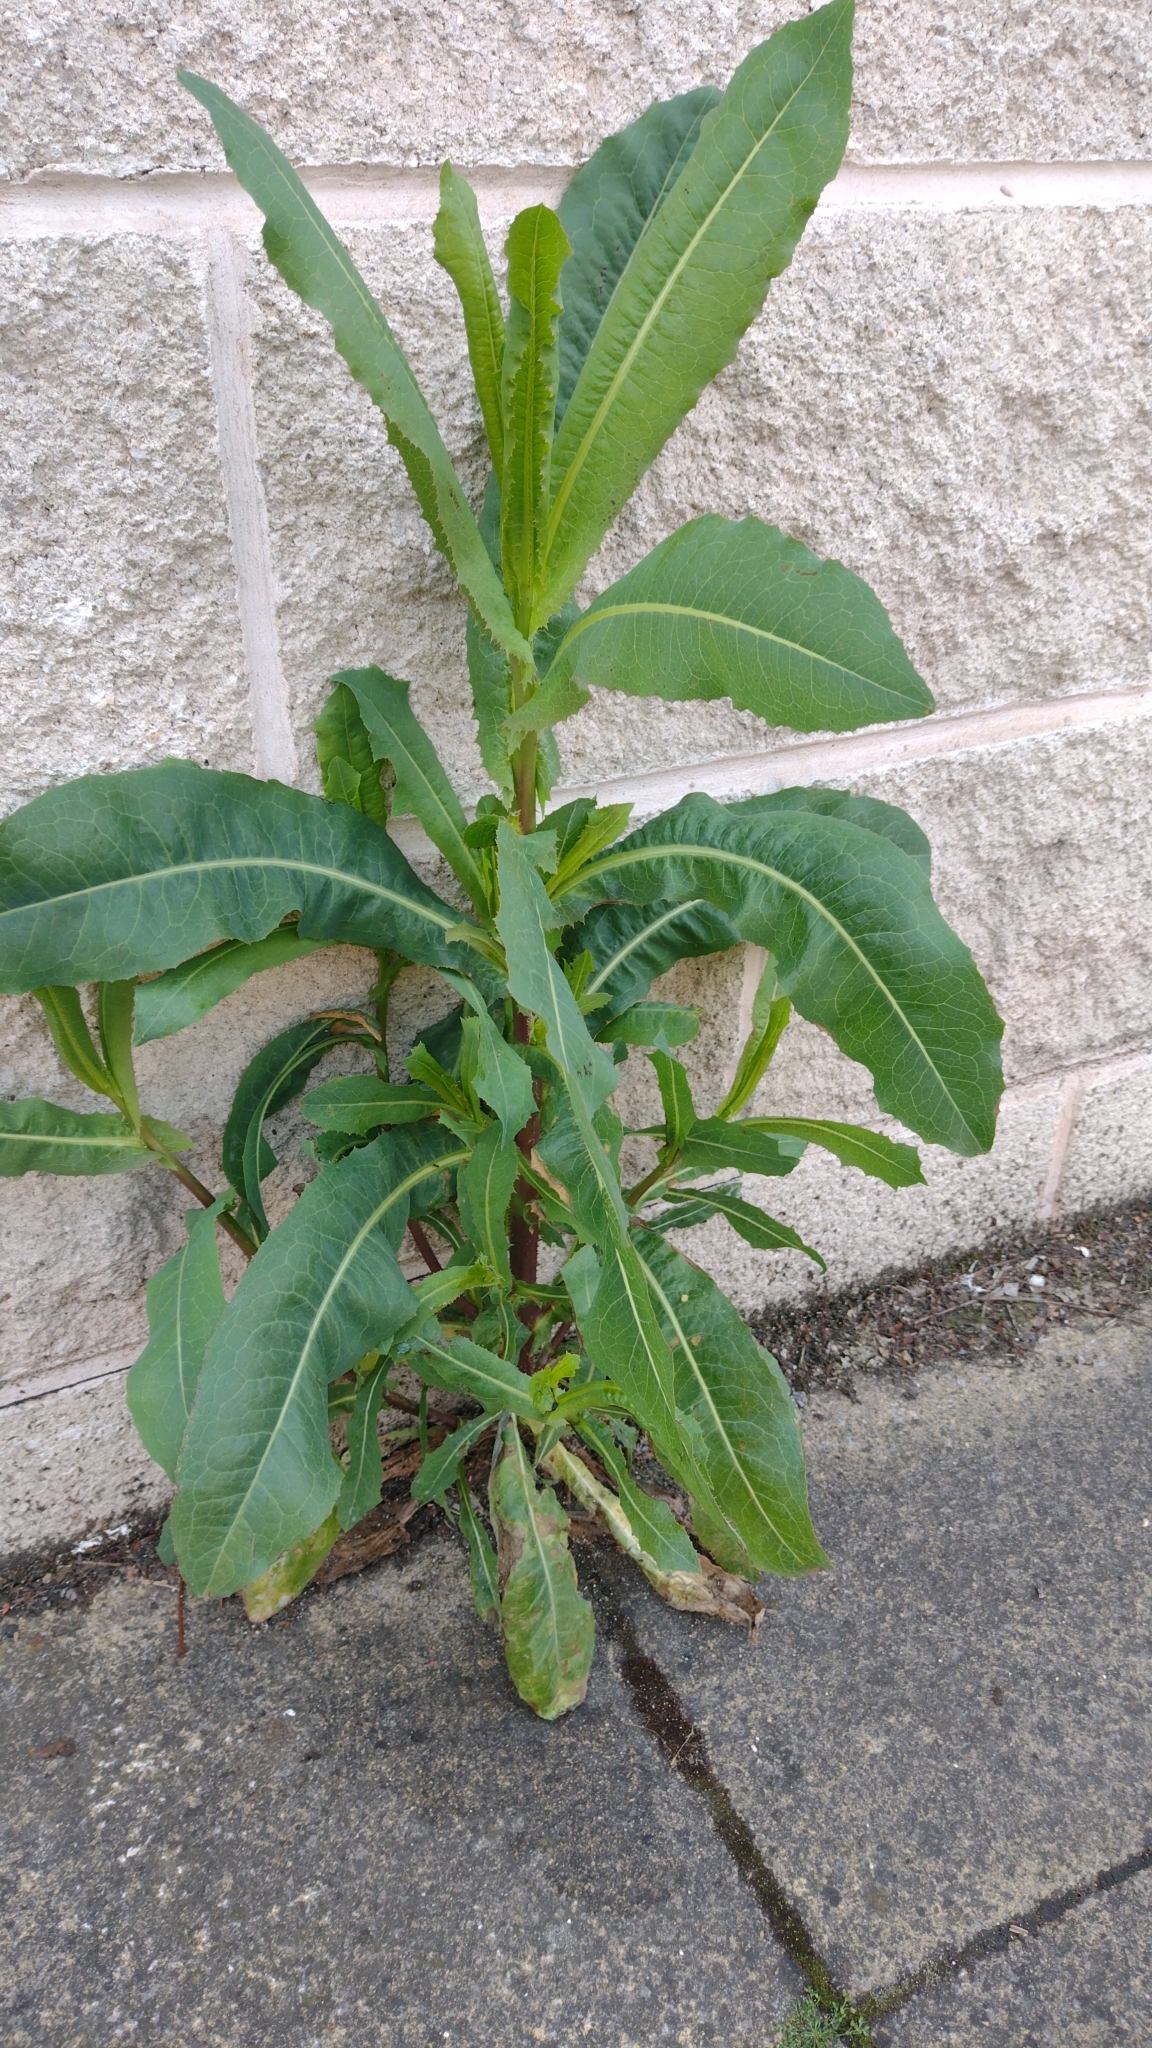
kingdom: Plantae
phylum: Tracheophyta
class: Magnoliopsida
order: Asterales
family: Asteraceae
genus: Lactuca
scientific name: Lactuca serriola
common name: Prickly lettuce
